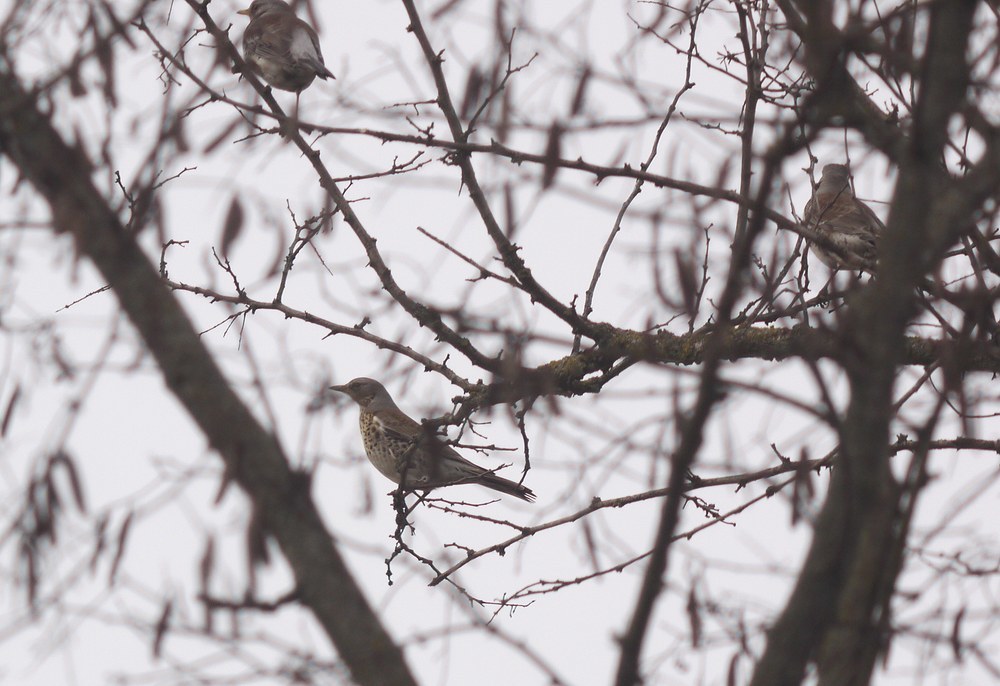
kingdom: Animalia
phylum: Chordata
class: Aves
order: Passeriformes
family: Turdidae
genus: Turdus
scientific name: Turdus pilaris
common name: Fieldfare
